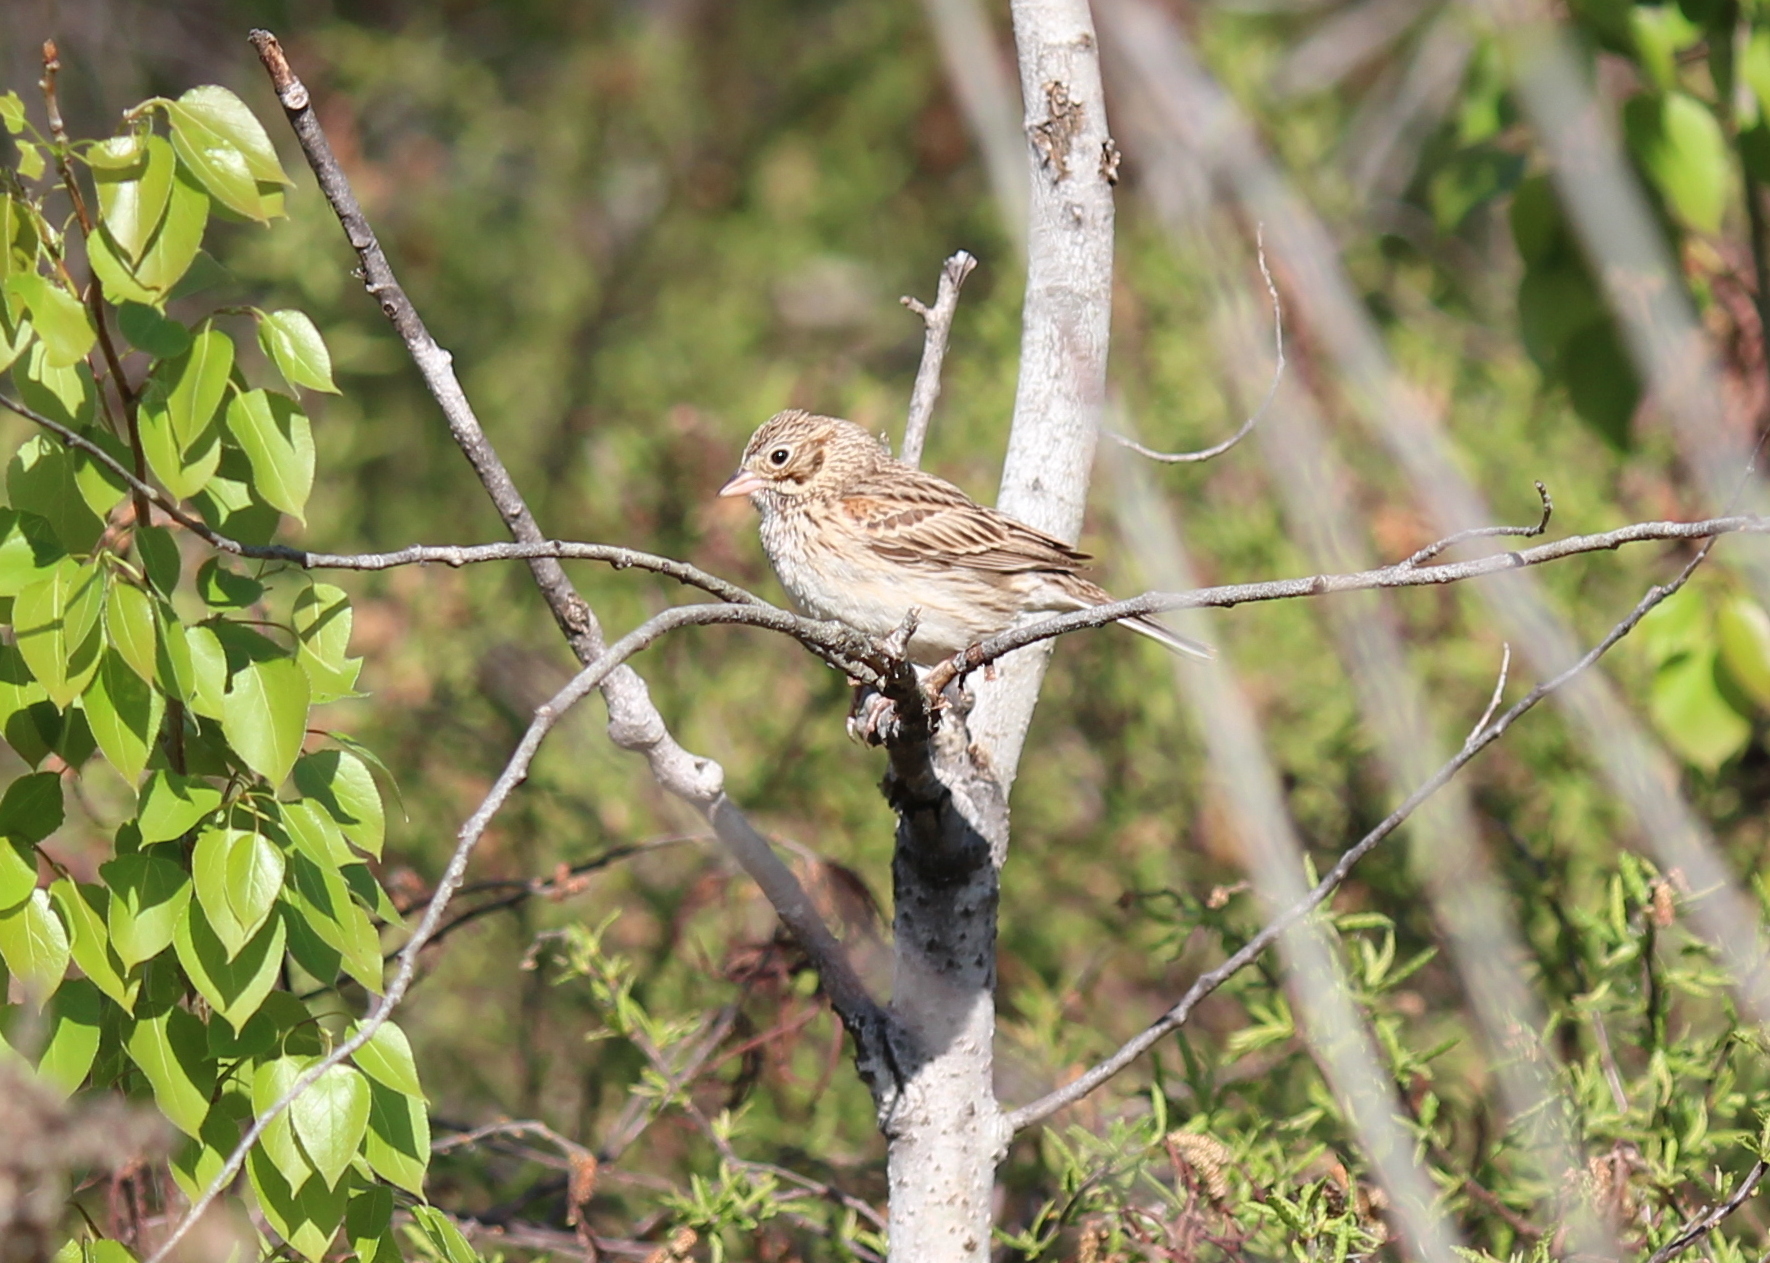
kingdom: Animalia
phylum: Chordata
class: Aves
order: Passeriformes
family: Passerellidae
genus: Pooecetes
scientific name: Pooecetes gramineus
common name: Vesper sparrow
